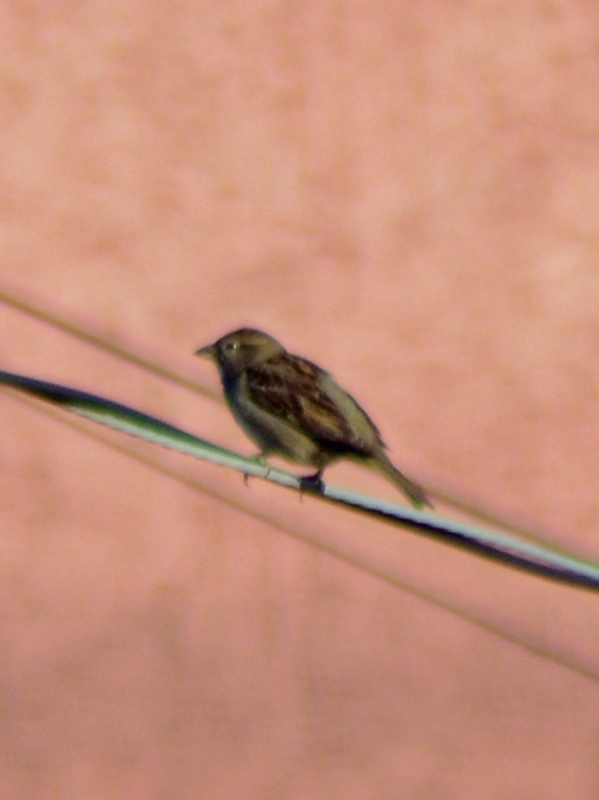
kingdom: Animalia
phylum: Chordata
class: Aves
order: Passeriformes
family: Passeridae
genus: Passer
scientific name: Passer domesticus
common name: House sparrow
